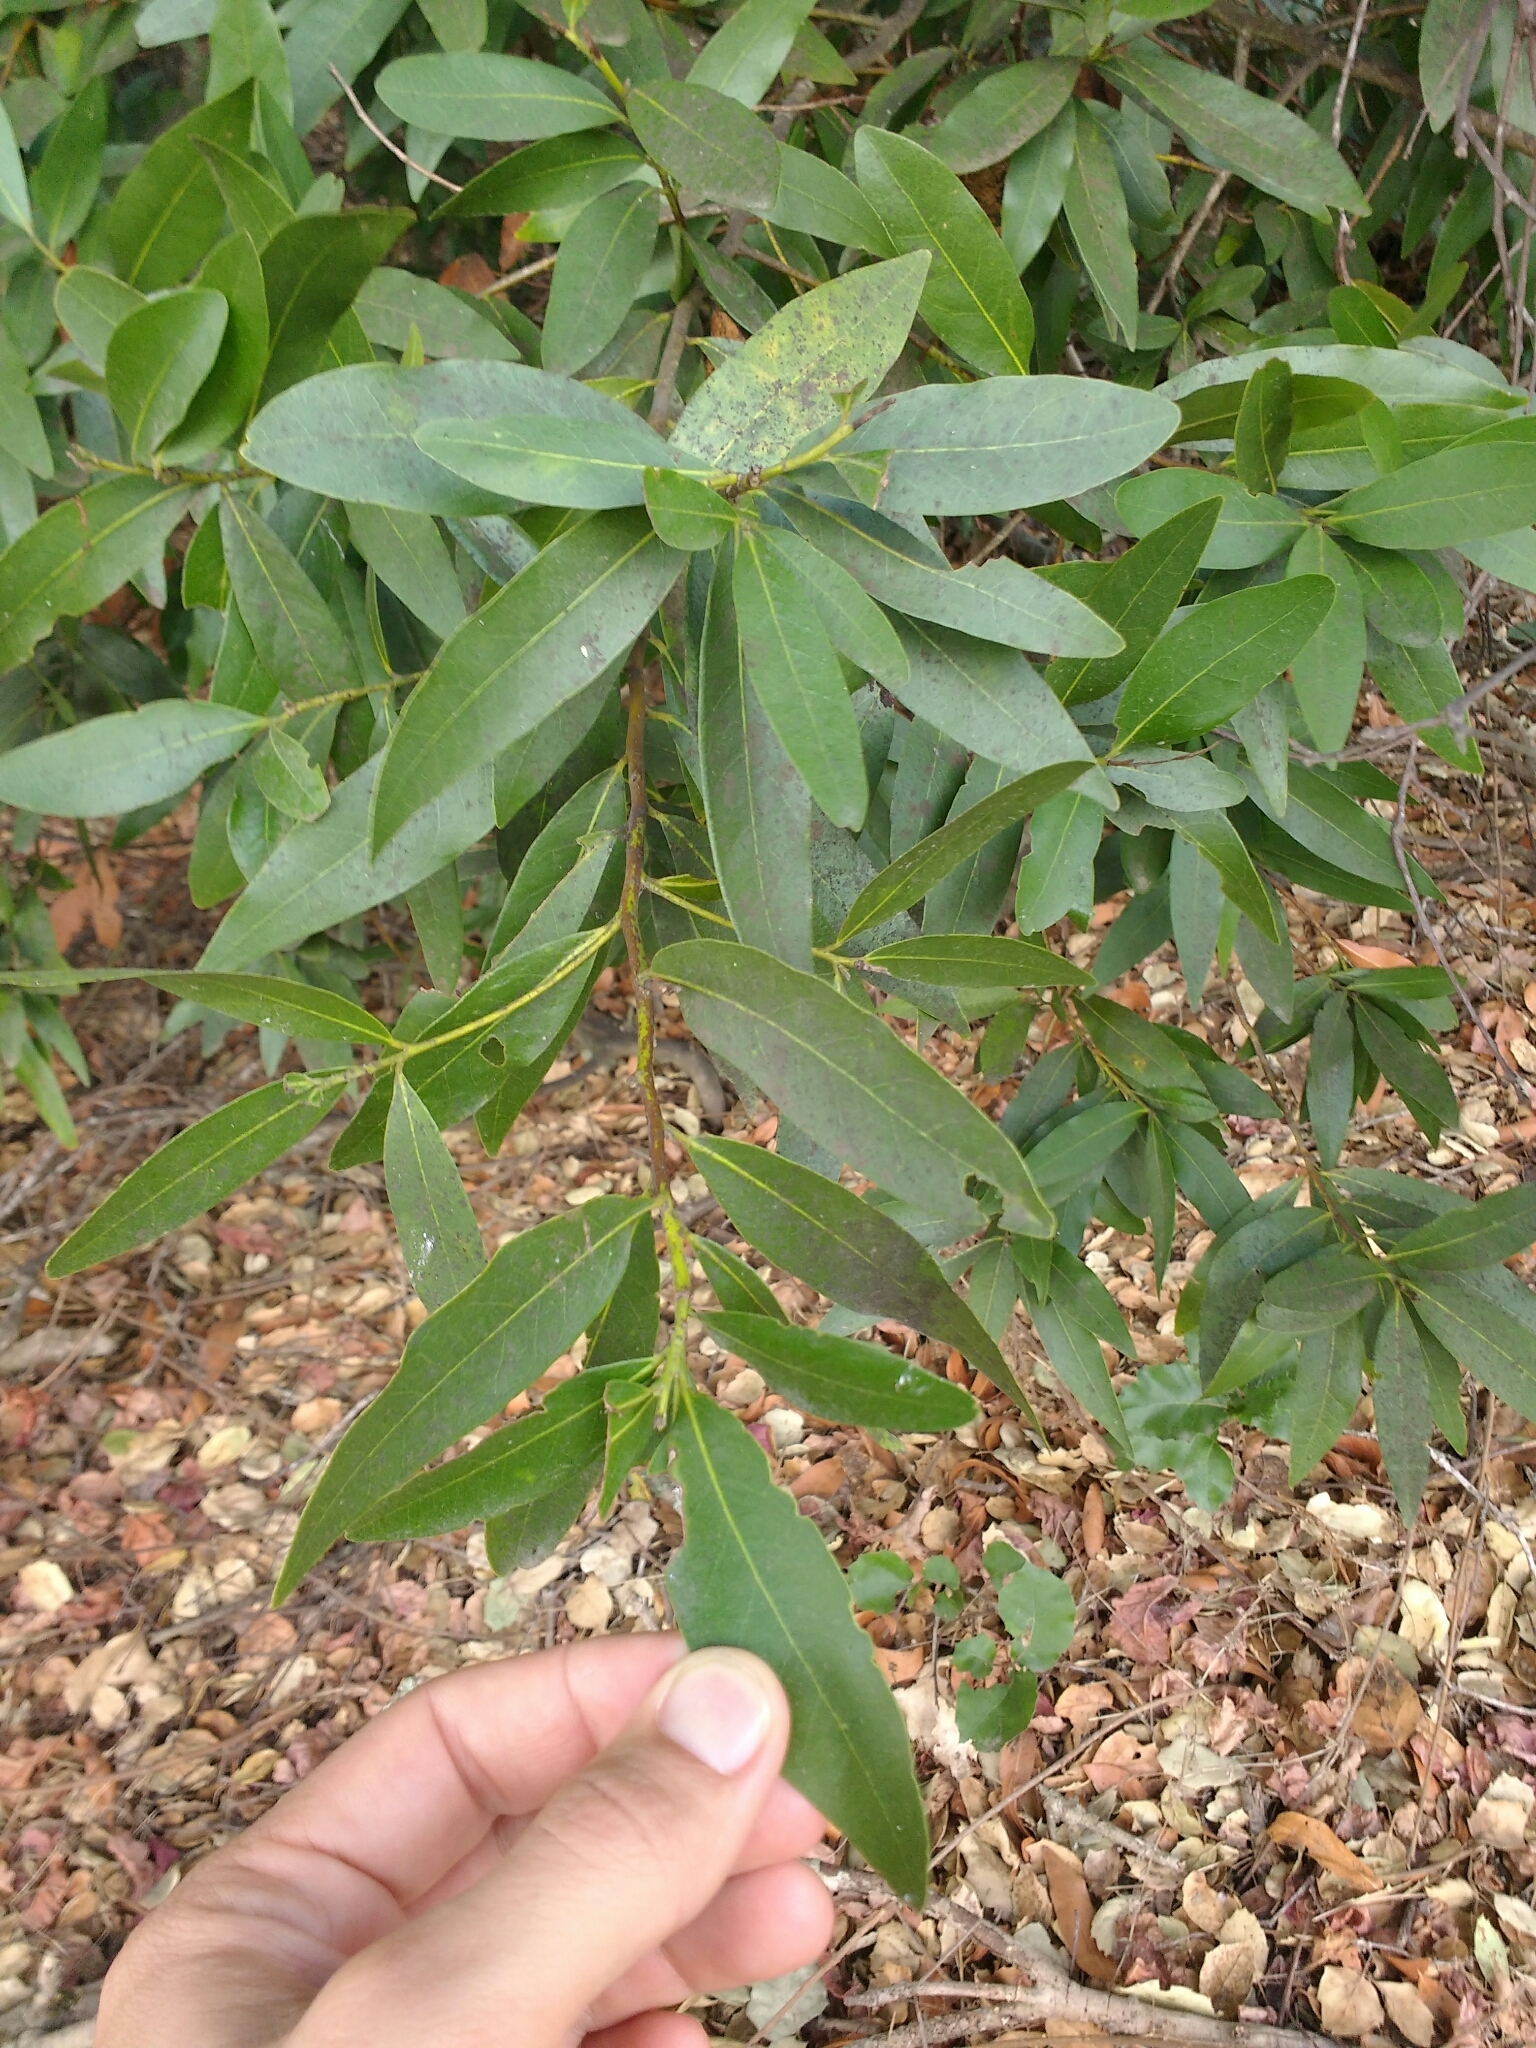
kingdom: Plantae
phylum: Tracheophyta
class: Magnoliopsida
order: Laurales
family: Lauraceae
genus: Umbellularia
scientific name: Umbellularia californica
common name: California bay
